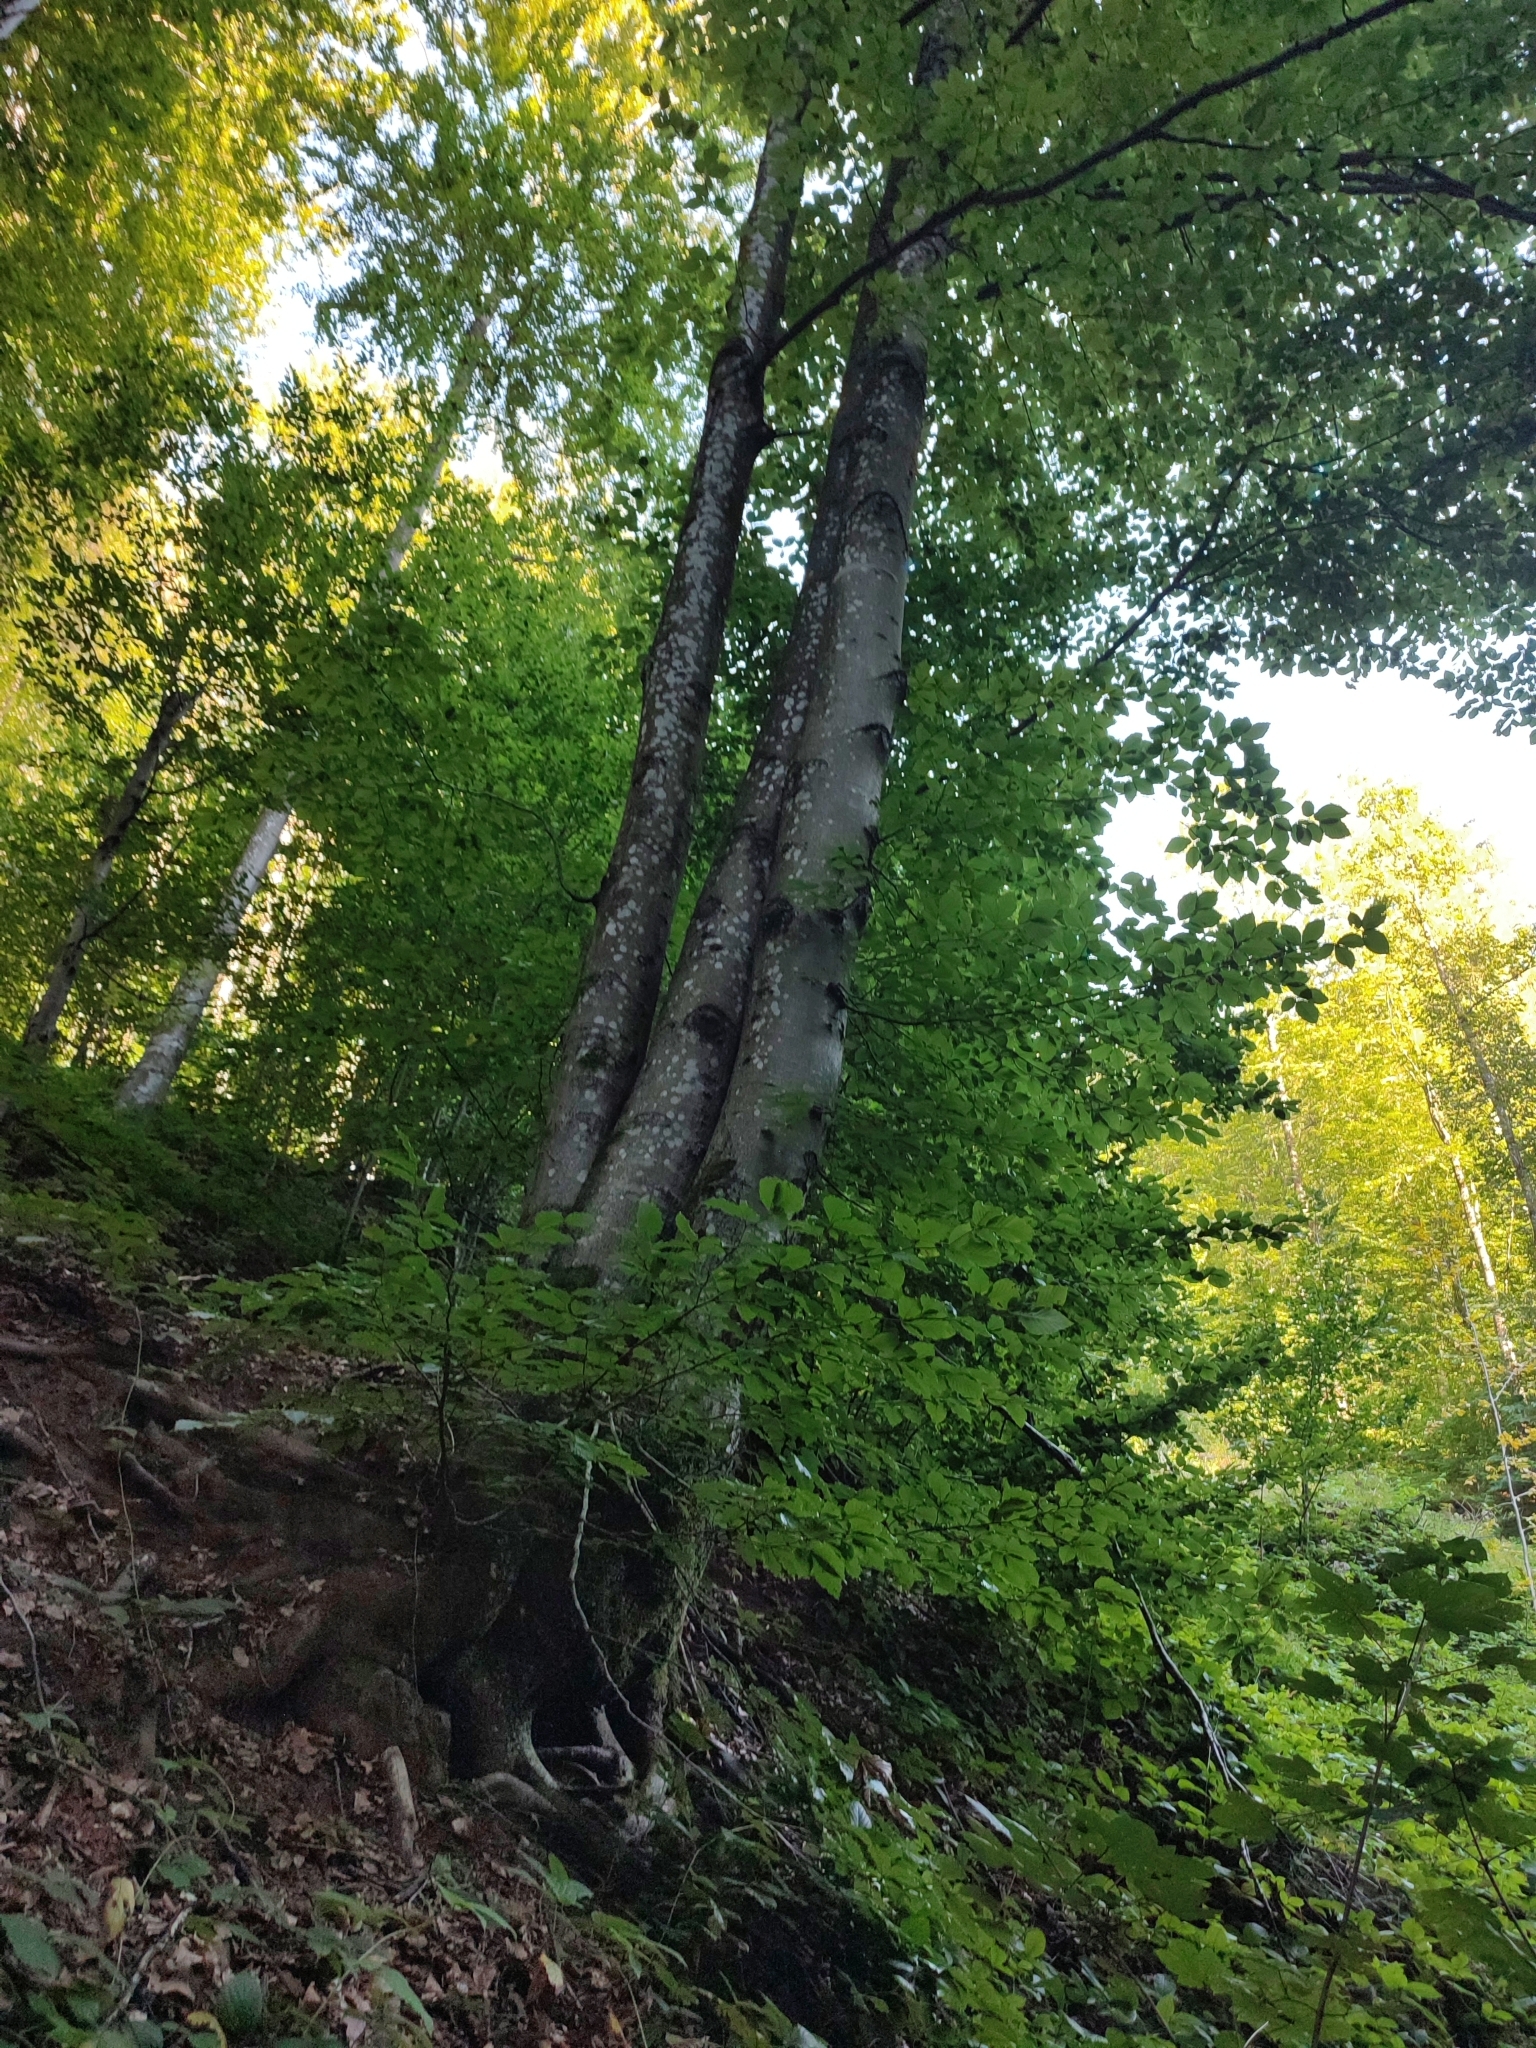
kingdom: Plantae
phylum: Tracheophyta
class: Magnoliopsida
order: Fagales
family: Fagaceae
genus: Fagus
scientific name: Fagus sylvatica
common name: Beech
